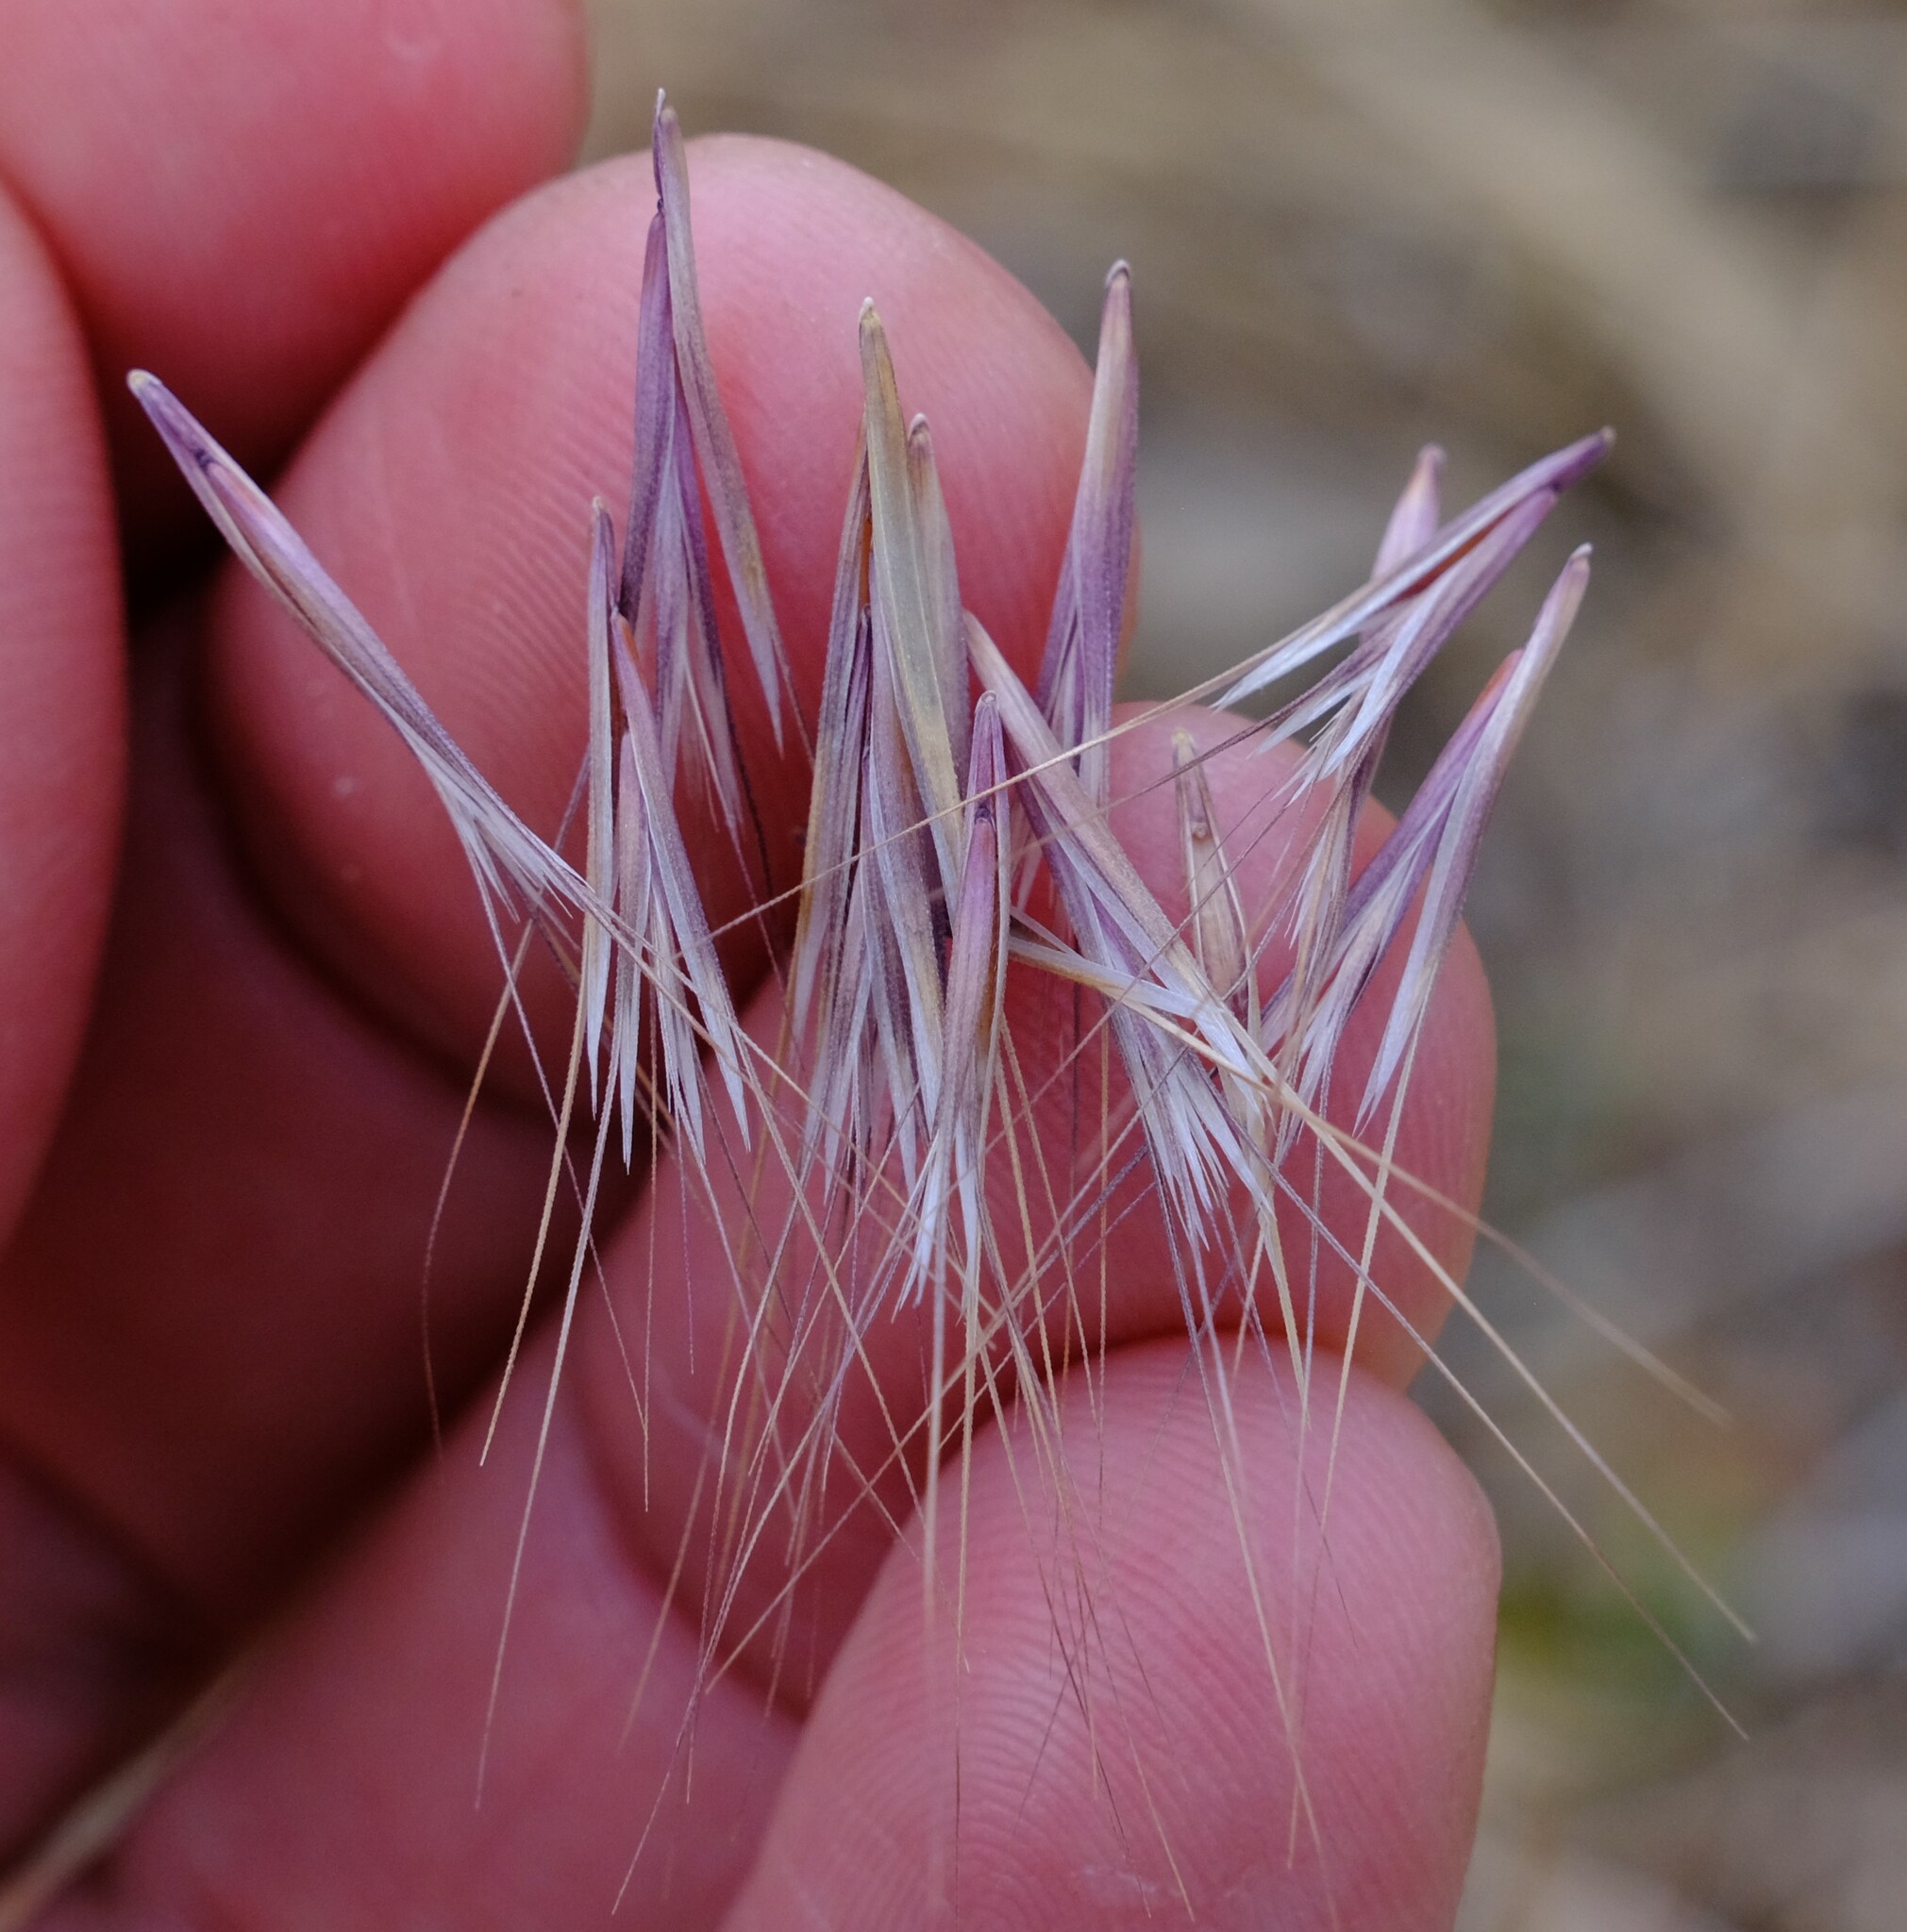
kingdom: Plantae
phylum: Tracheophyta
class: Liliopsida
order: Poales
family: Poaceae
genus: Bromus
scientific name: Bromus rubens
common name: Red brome
